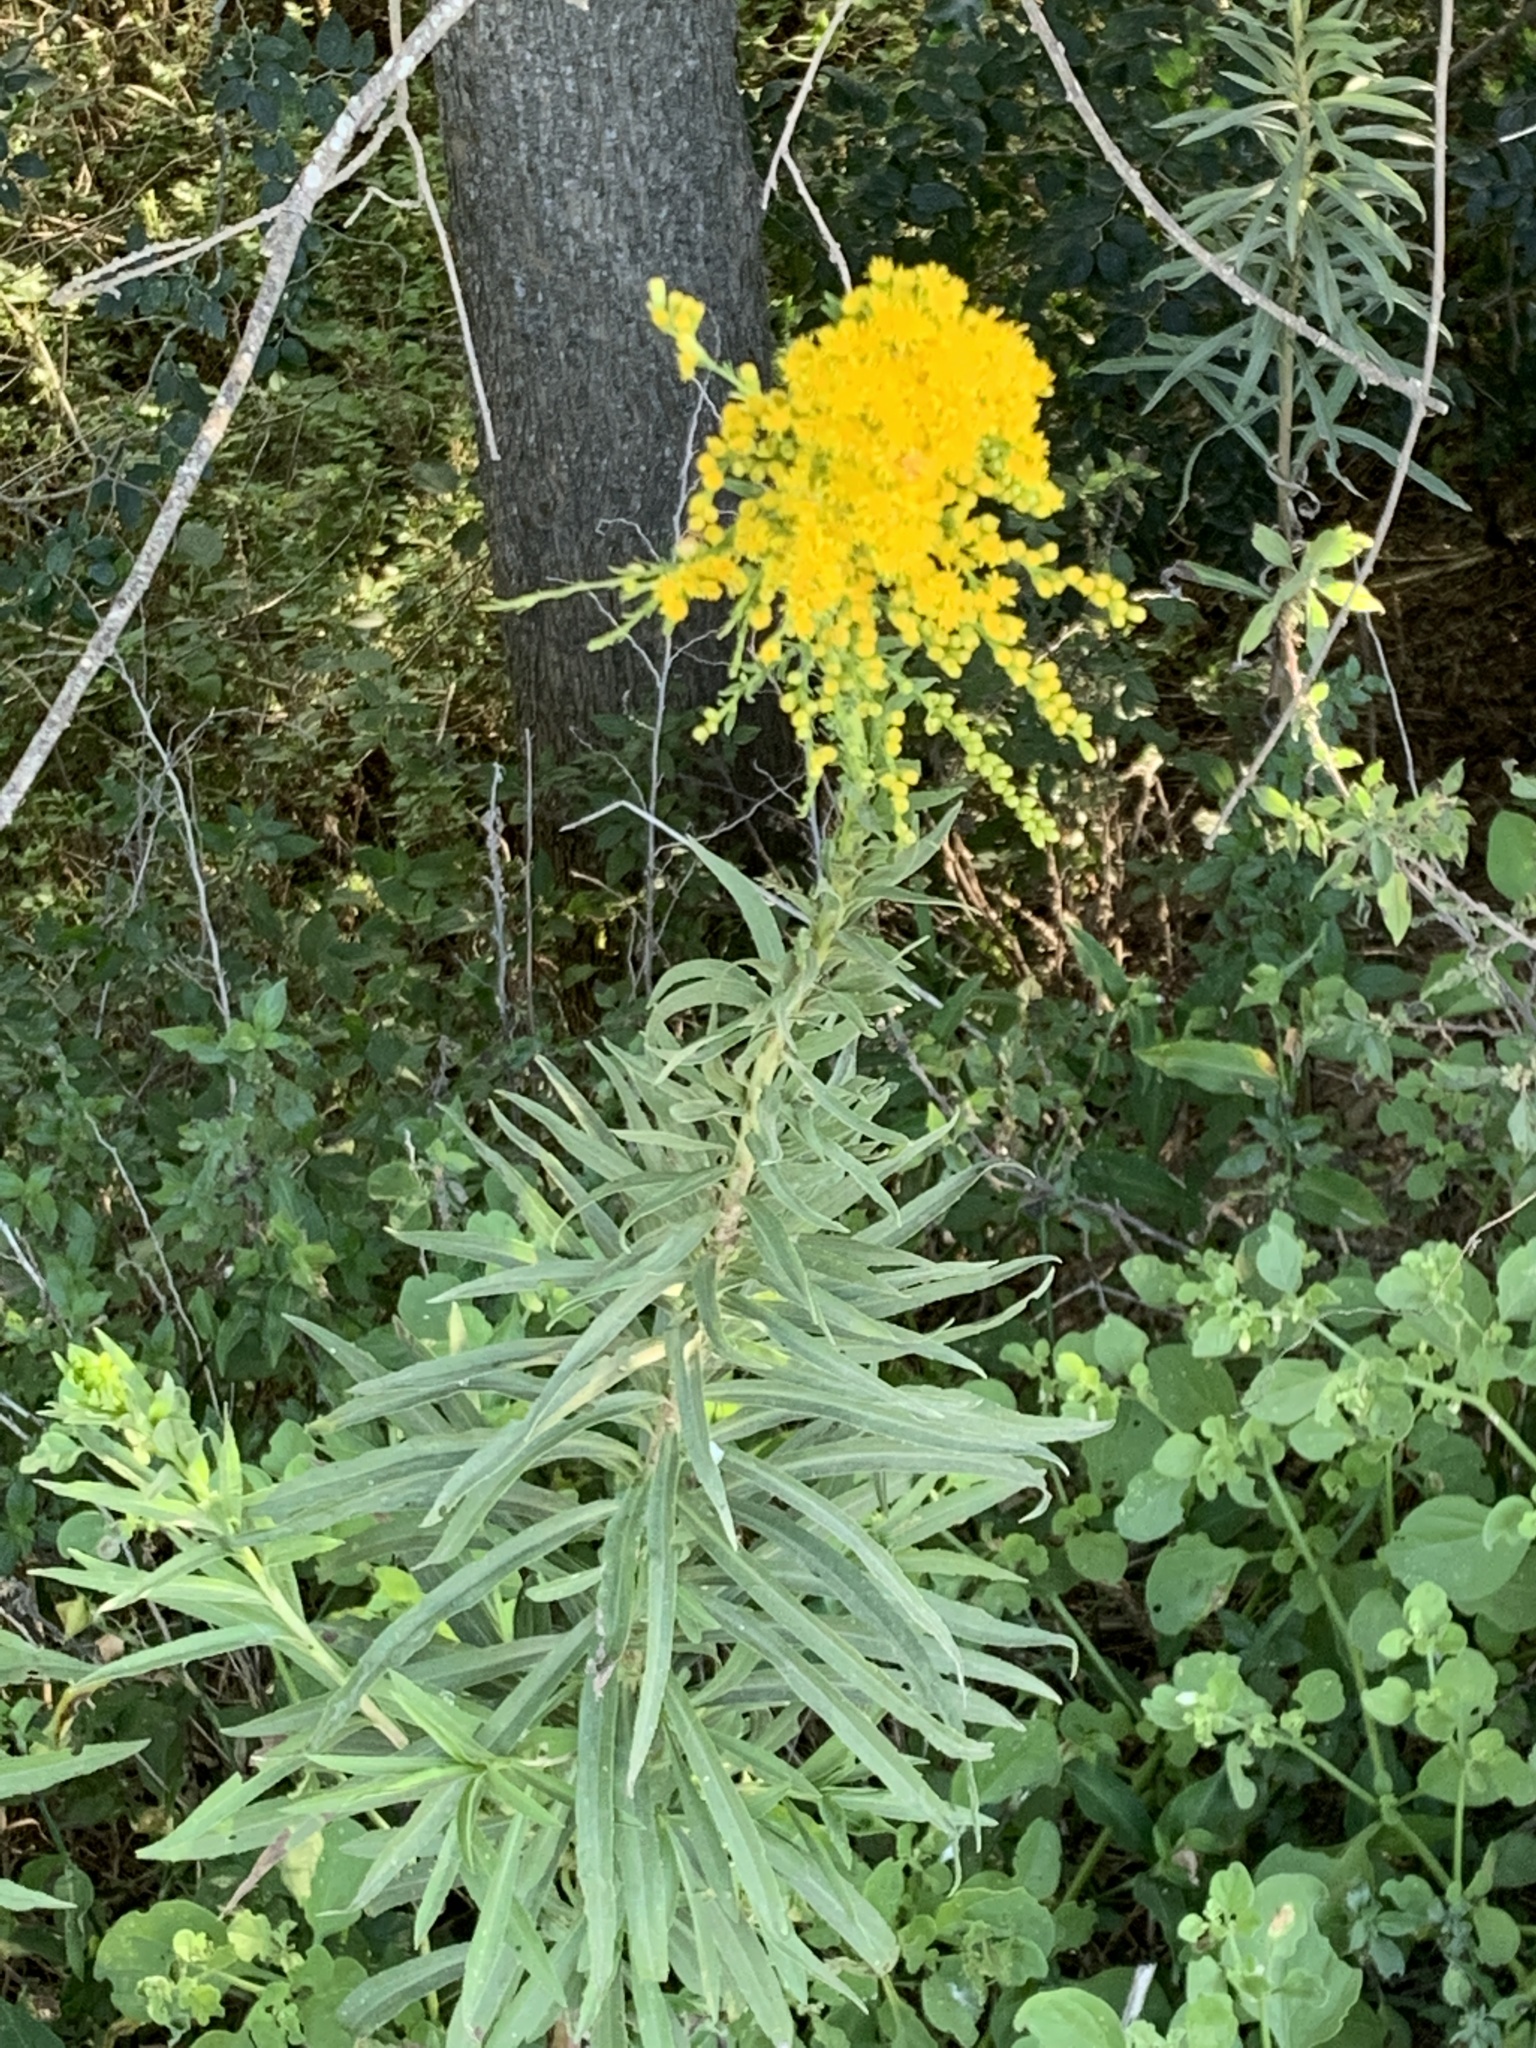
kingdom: Plantae
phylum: Tracheophyta
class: Magnoliopsida
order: Asterales
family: Asteraceae
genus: Solidago
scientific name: Solidago chilensis
